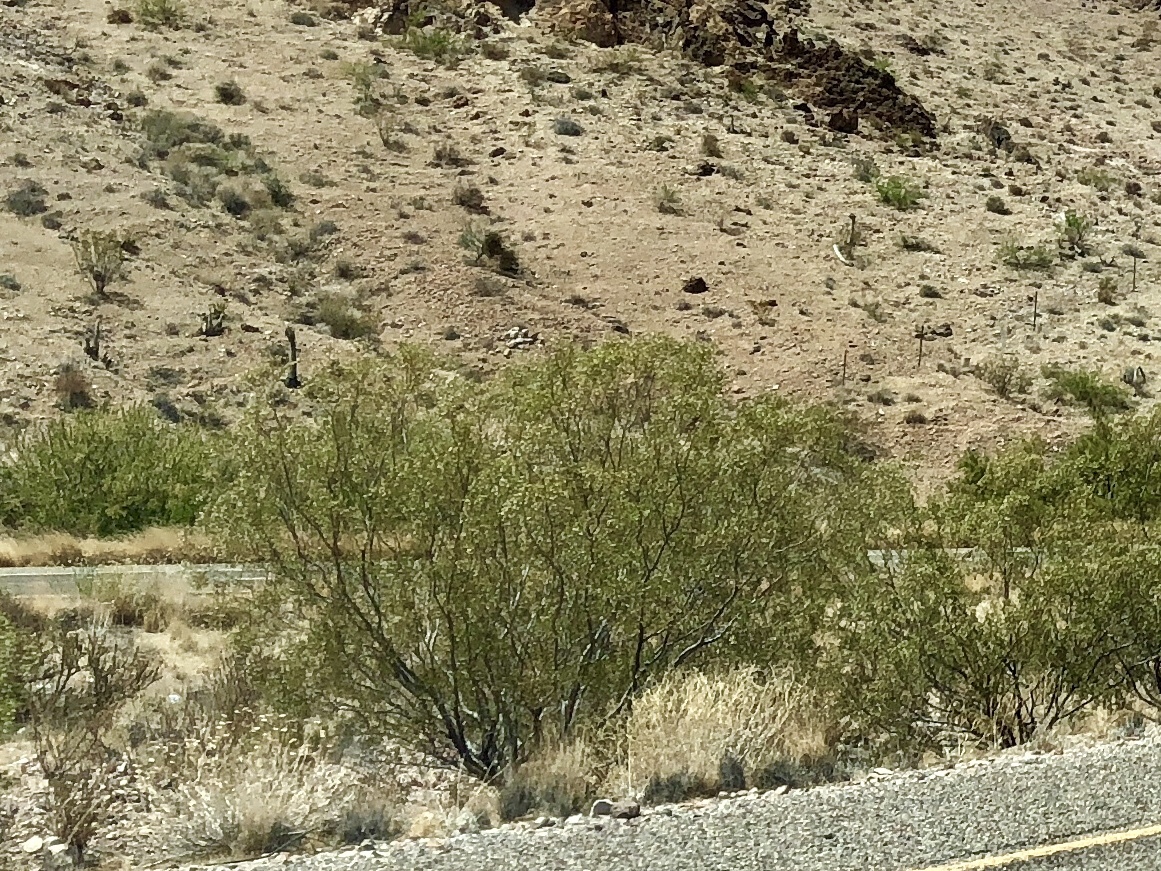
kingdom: Plantae
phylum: Tracheophyta
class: Magnoliopsida
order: Zygophyllales
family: Zygophyllaceae
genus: Larrea
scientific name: Larrea tridentata
